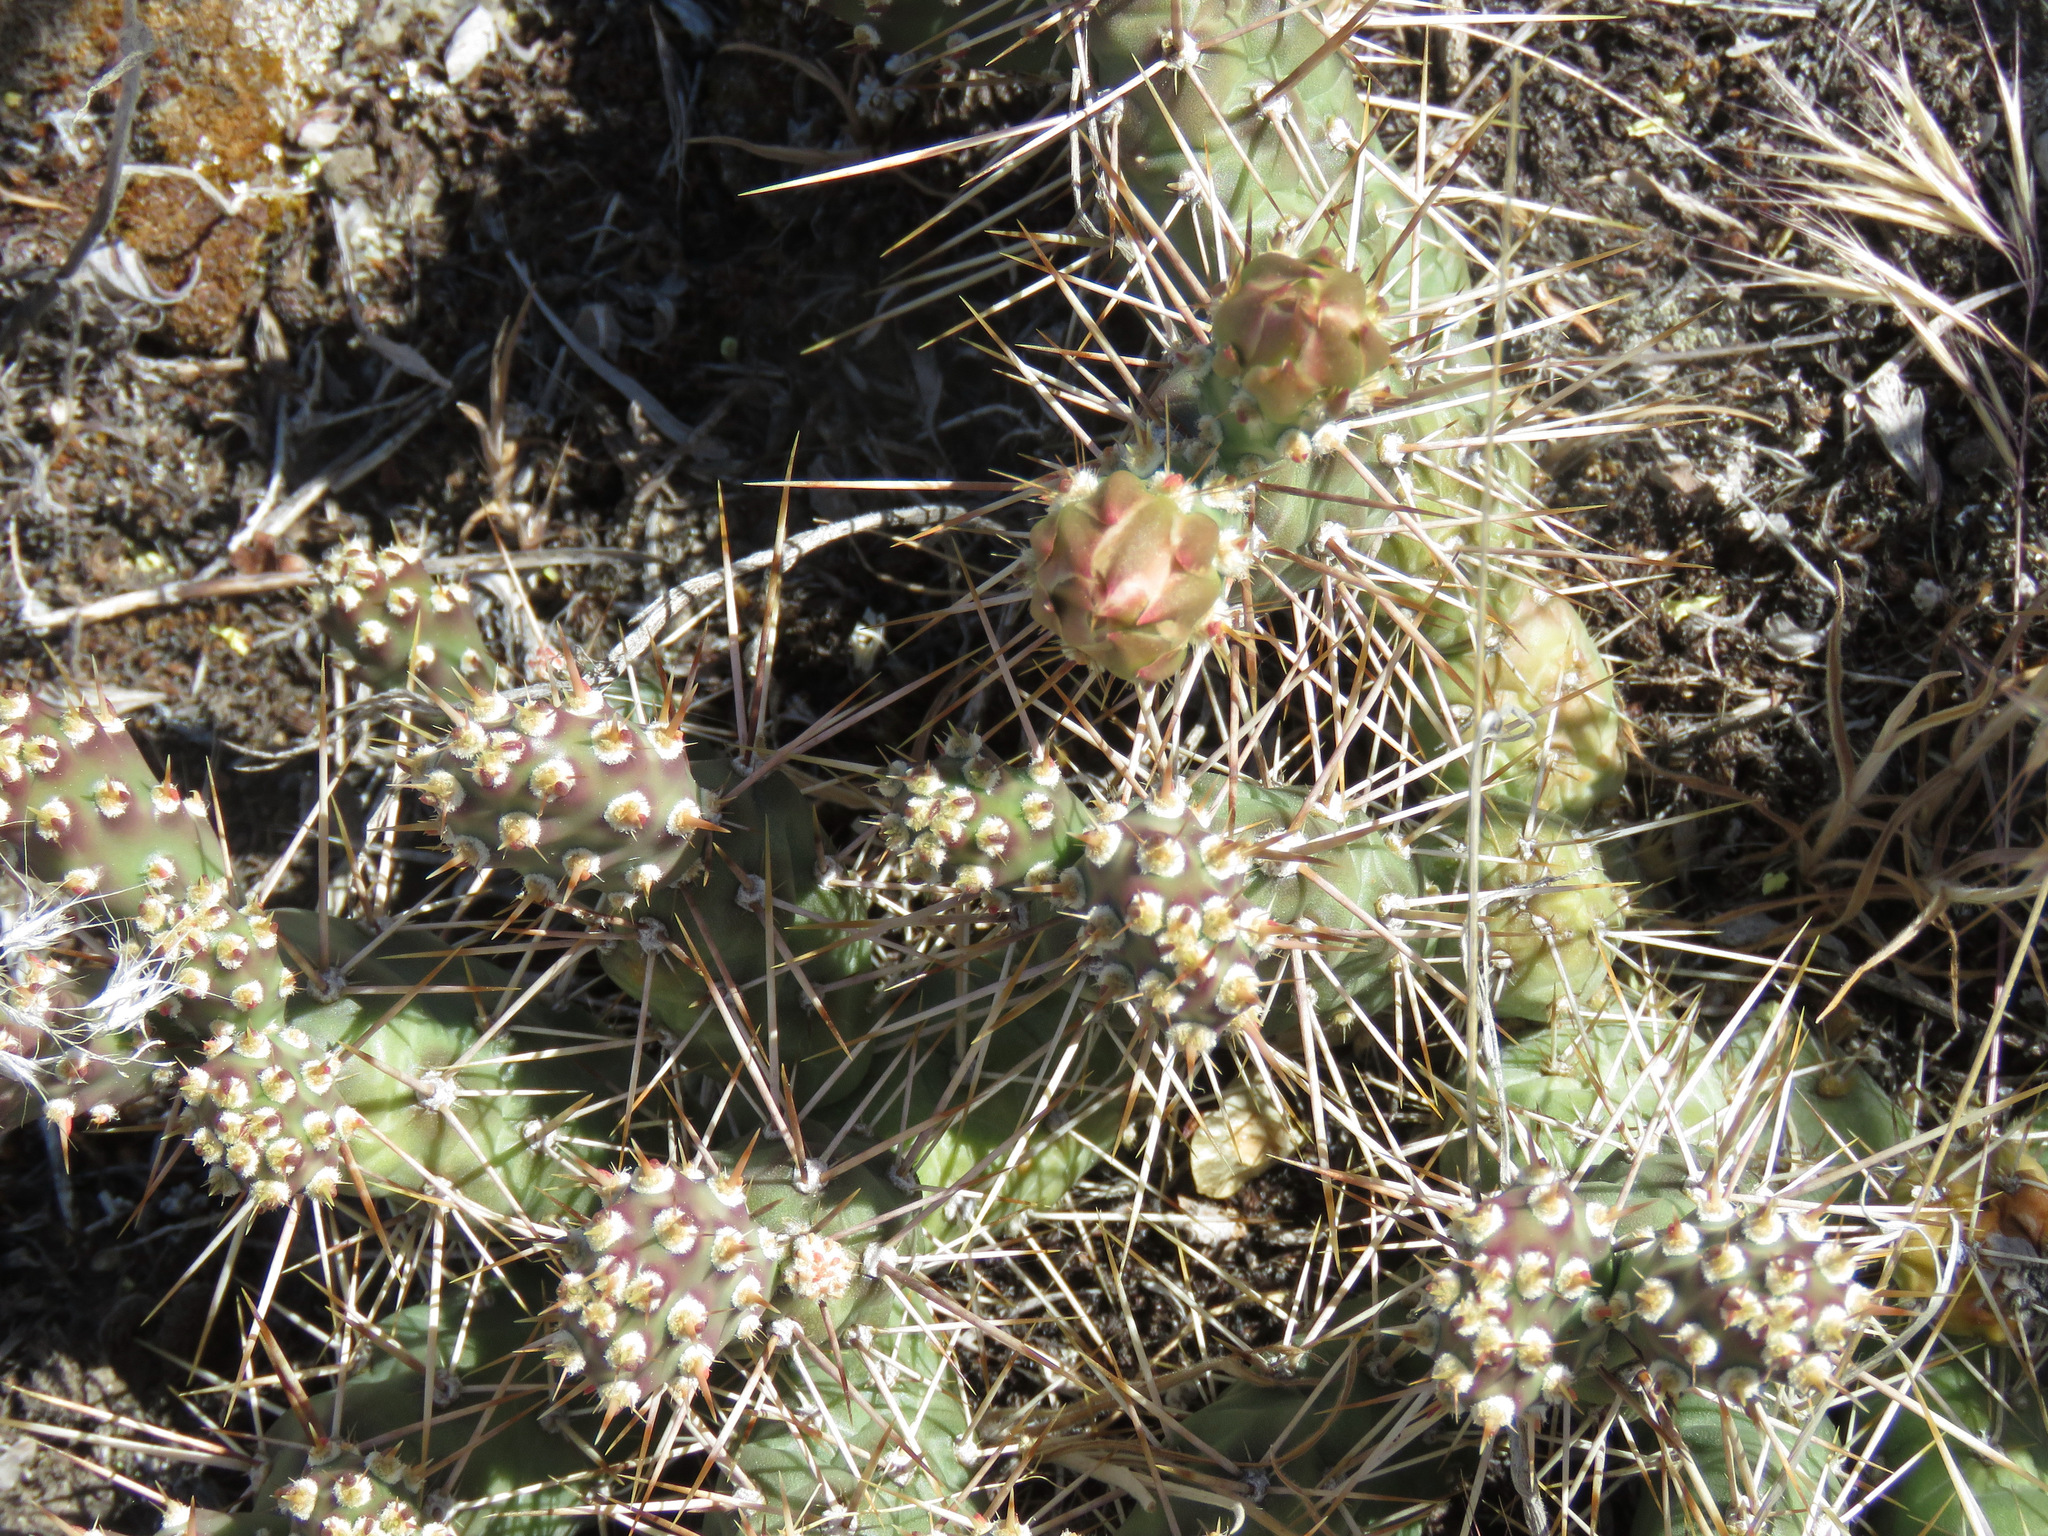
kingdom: Plantae
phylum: Tracheophyta
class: Magnoliopsida
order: Caryophyllales
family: Cactaceae
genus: Opuntia
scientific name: Opuntia fragilis
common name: Brittle cactus
